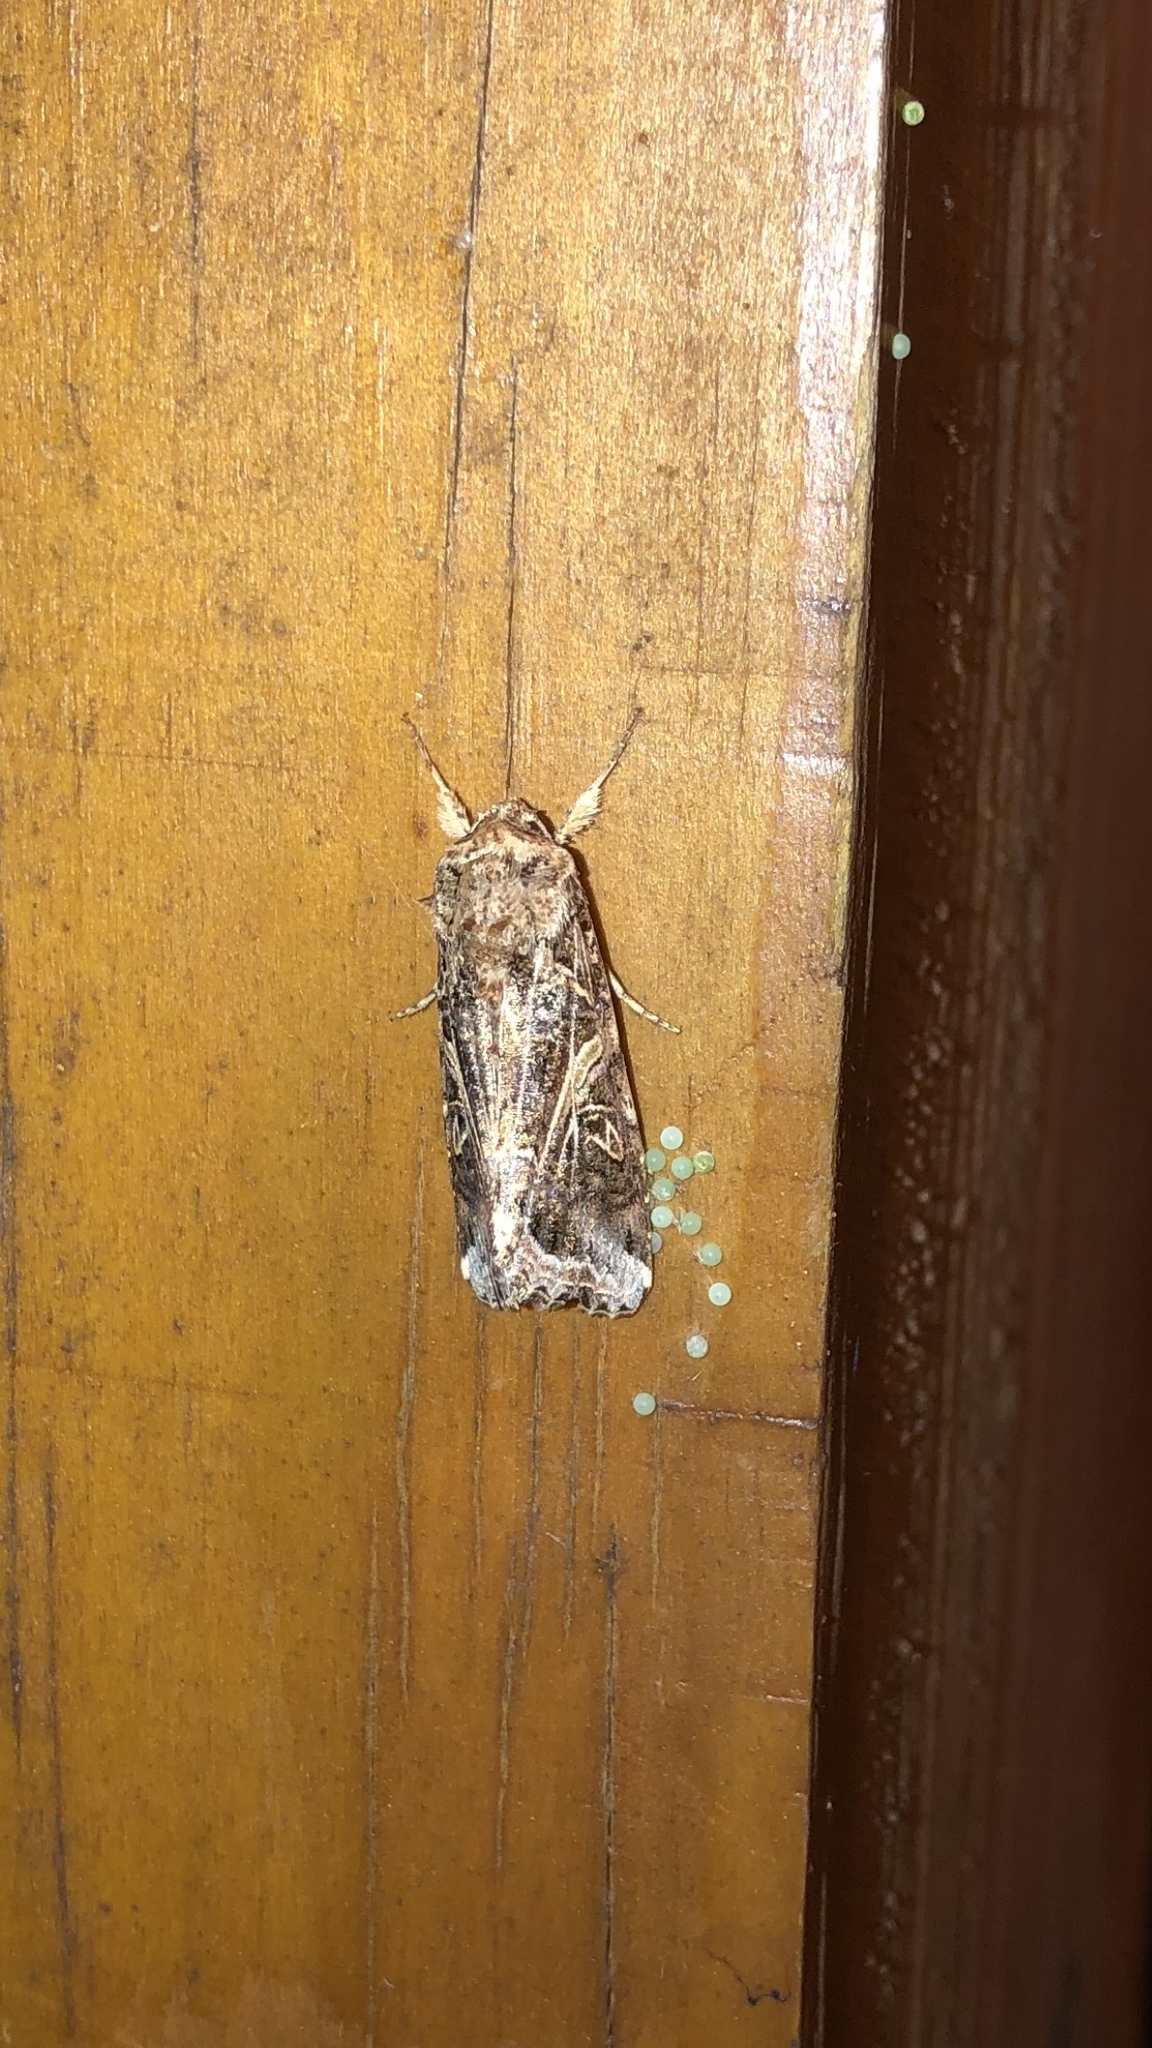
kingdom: Animalia
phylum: Arthropoda
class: Insecta
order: Lepidoptera
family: Noctuidae
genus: Spodoptera
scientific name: Spodoptera ornithogalli
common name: Yellow-striped armyworm
